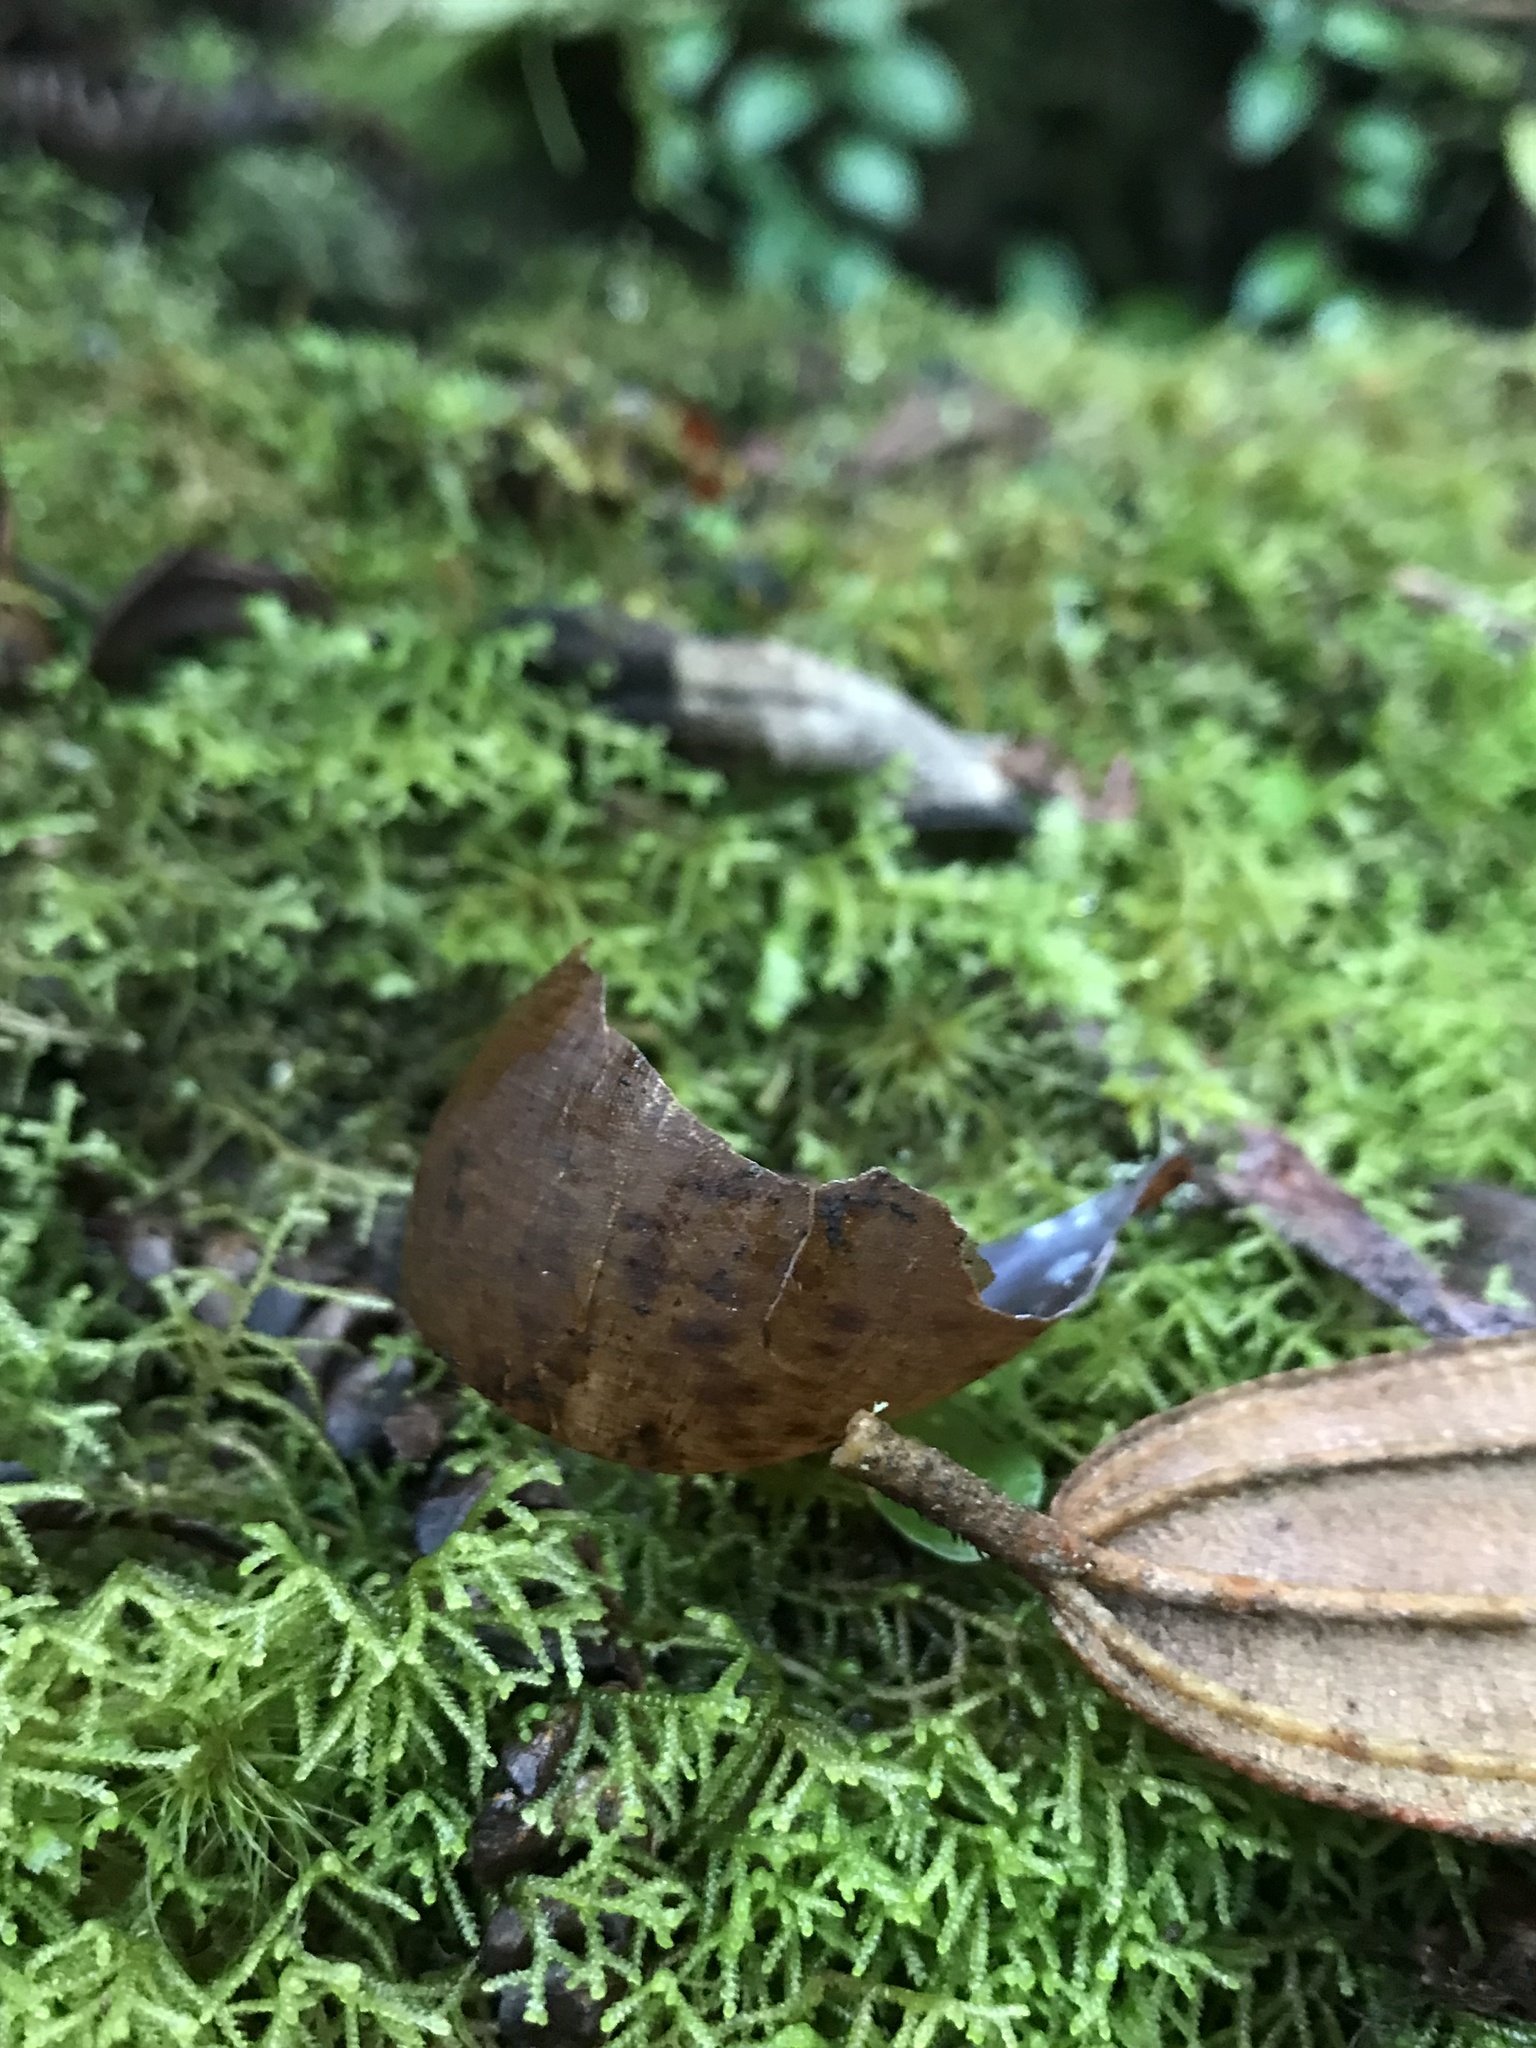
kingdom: Animalia
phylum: Mollusca
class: Gastropoda
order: Stylommatophora
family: Amphibulimidae
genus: Plekocheilus
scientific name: Plekocheilus
